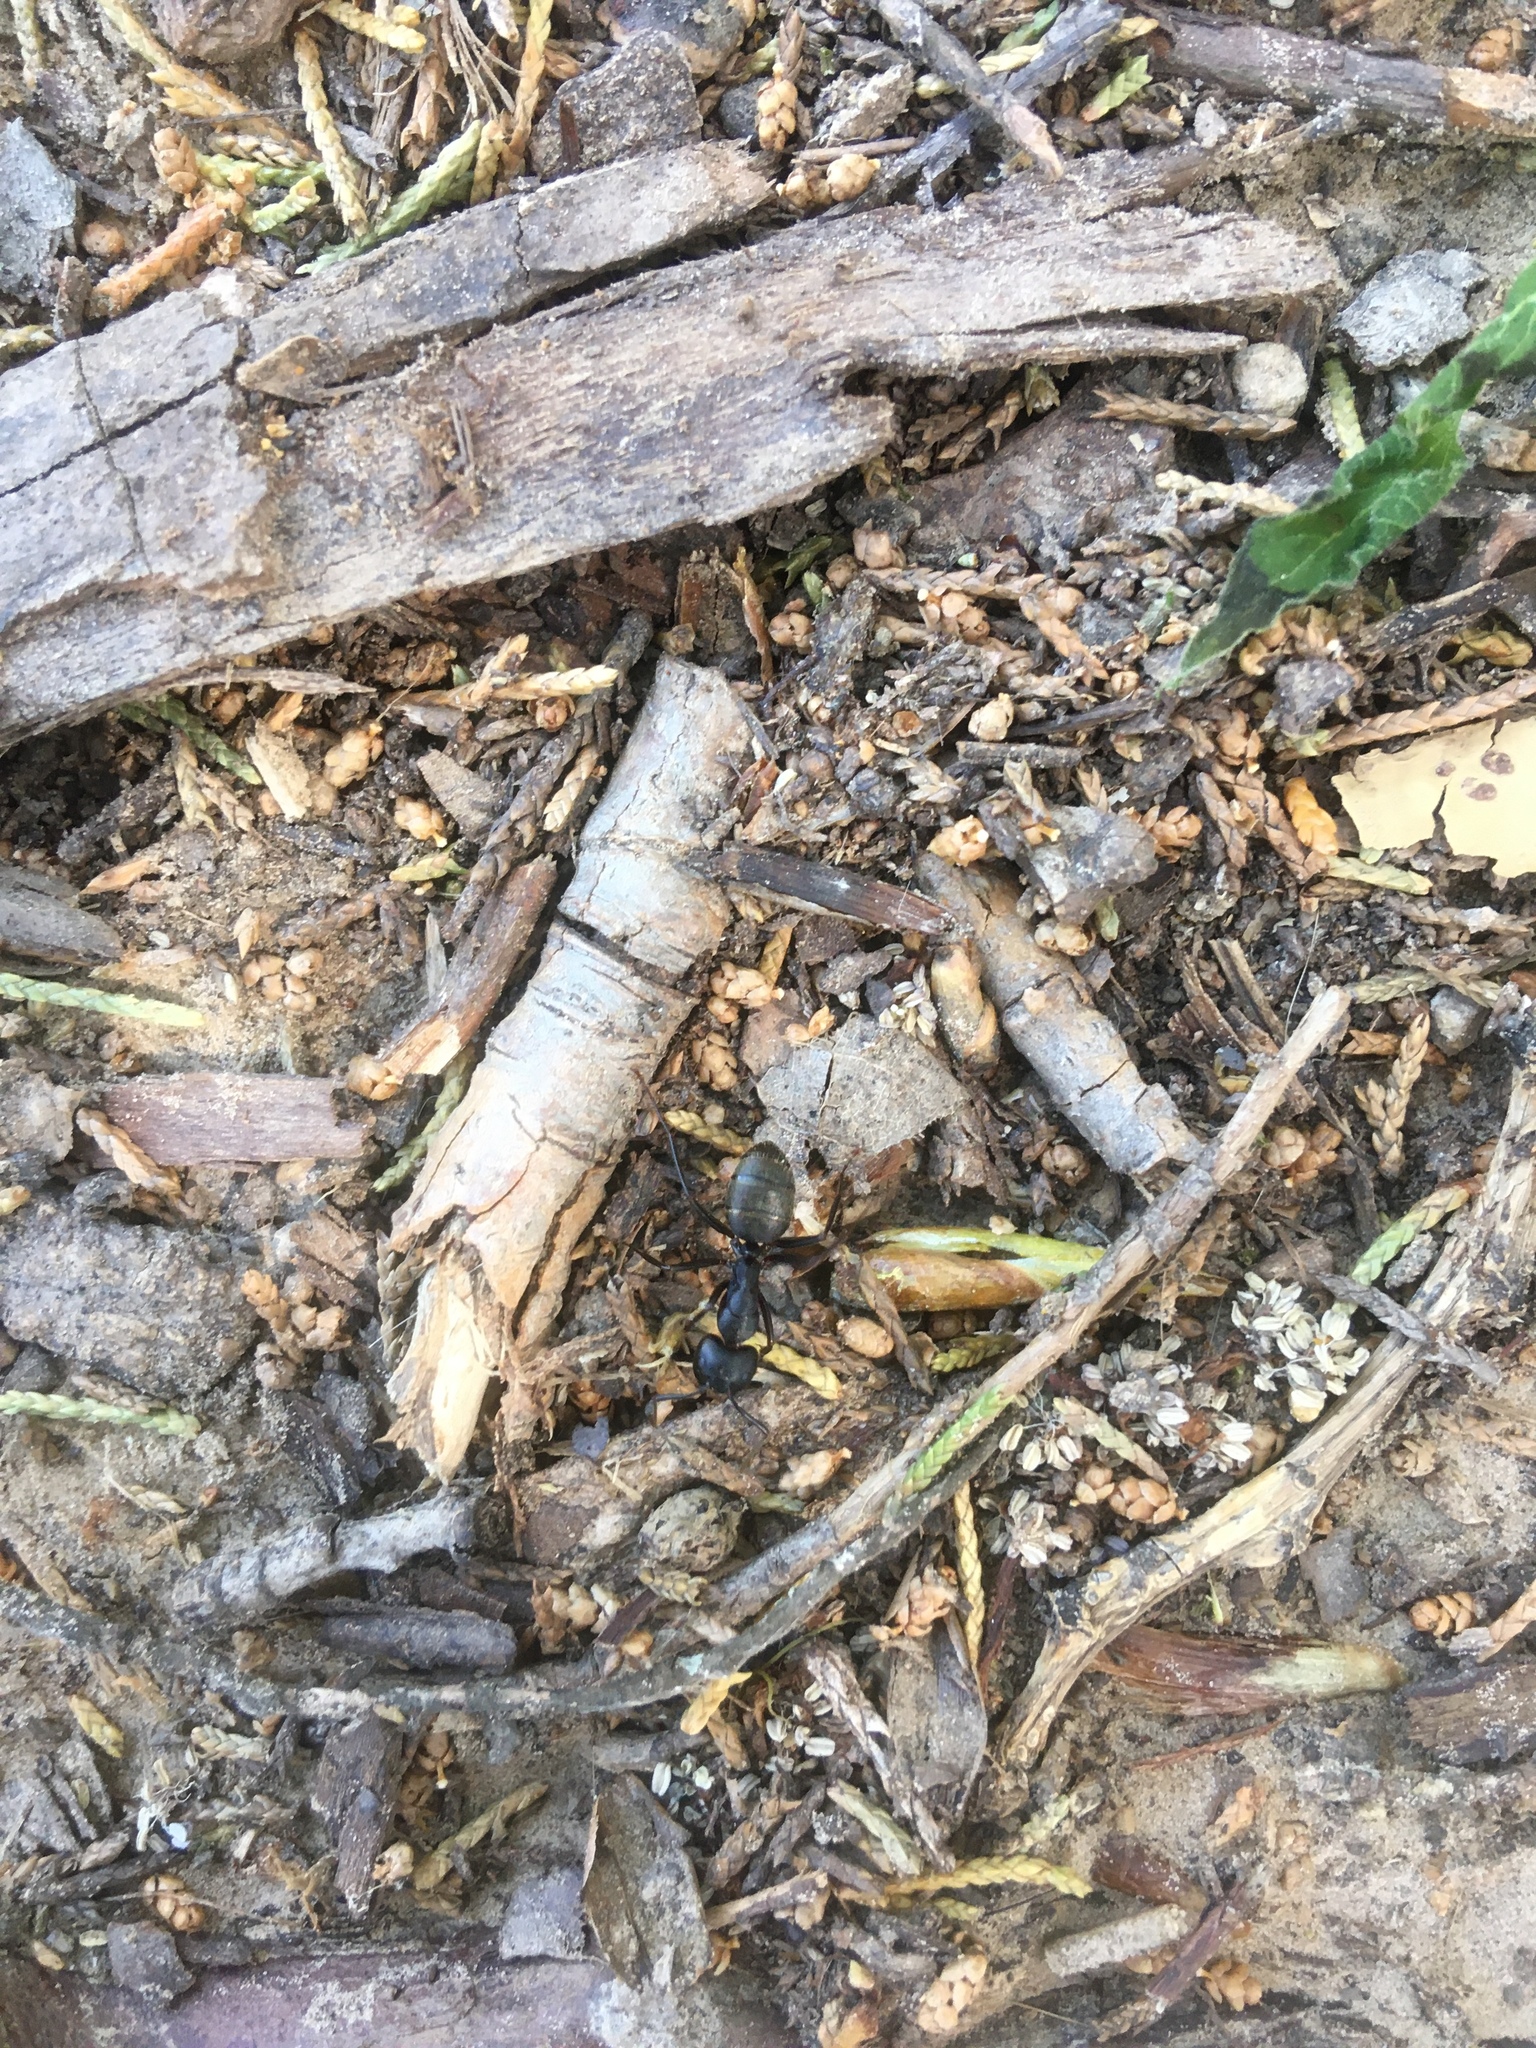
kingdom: Animalia
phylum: Arthropoda
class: Insecta
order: Hymenoptera
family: Formicidae
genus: Camponotus
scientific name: Camponotus pennsylvanicus
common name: Black carpenter ant
